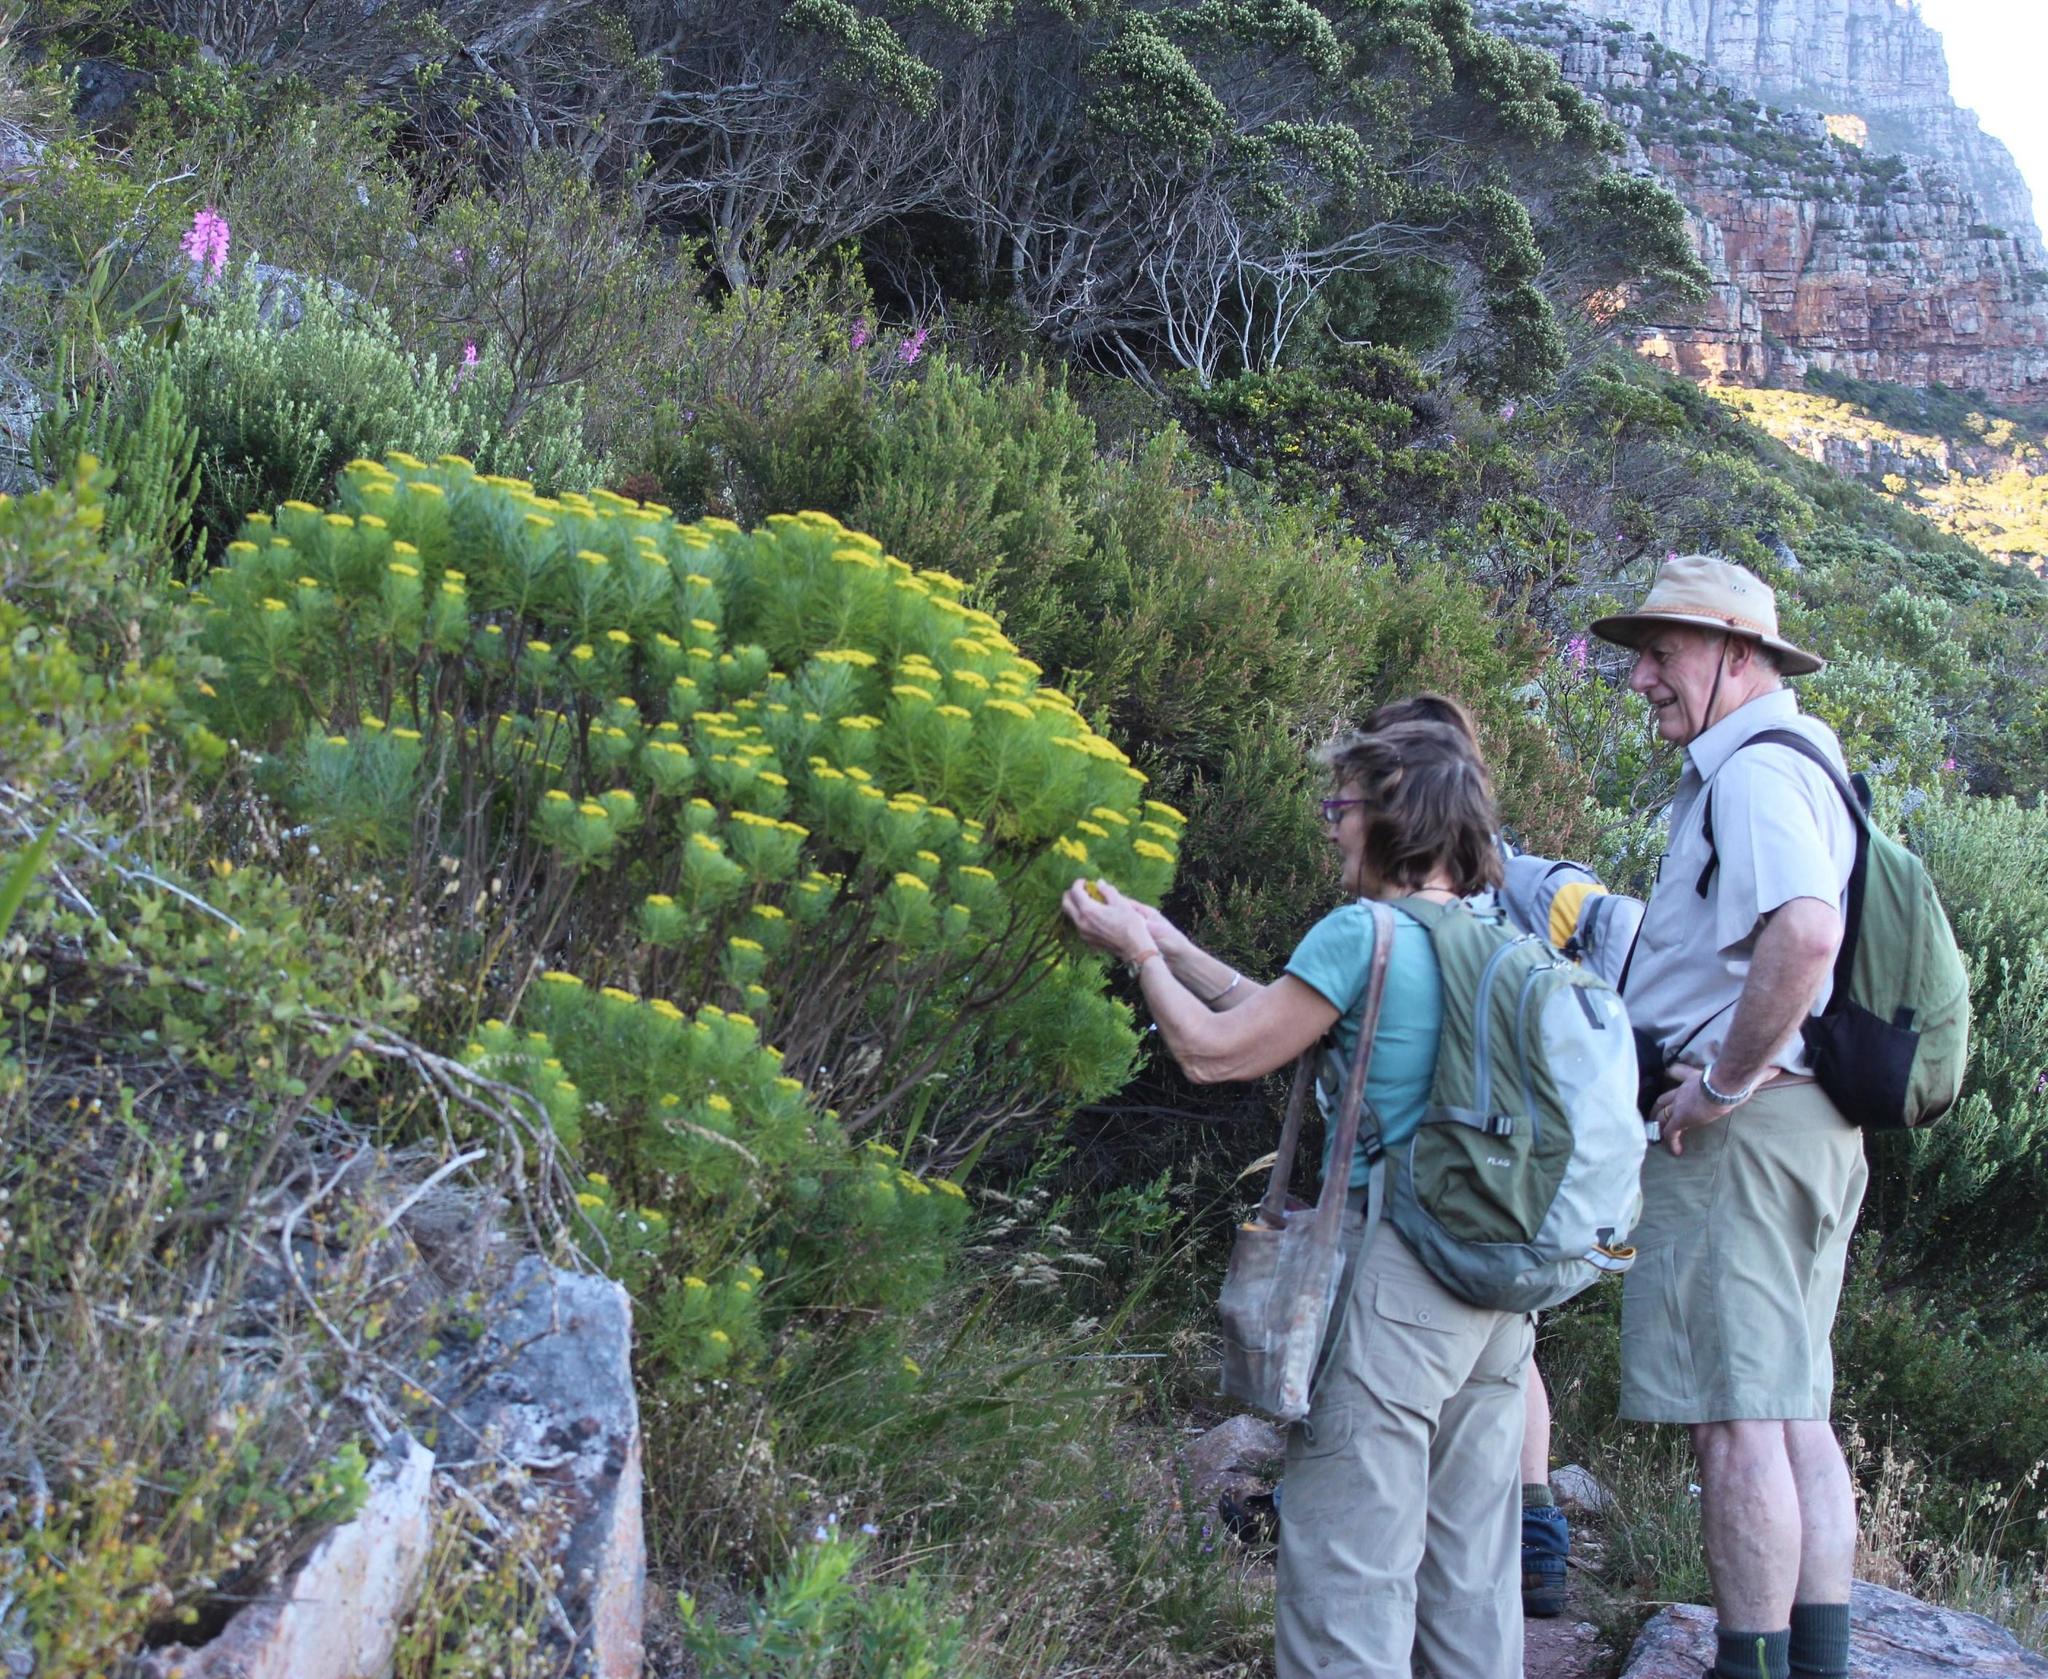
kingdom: Plantae
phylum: Tracheophyta
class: Magnoliopsida
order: Asterales
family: Asteraceae
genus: Hymenolepis
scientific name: Hymenolepis crithmifolia
